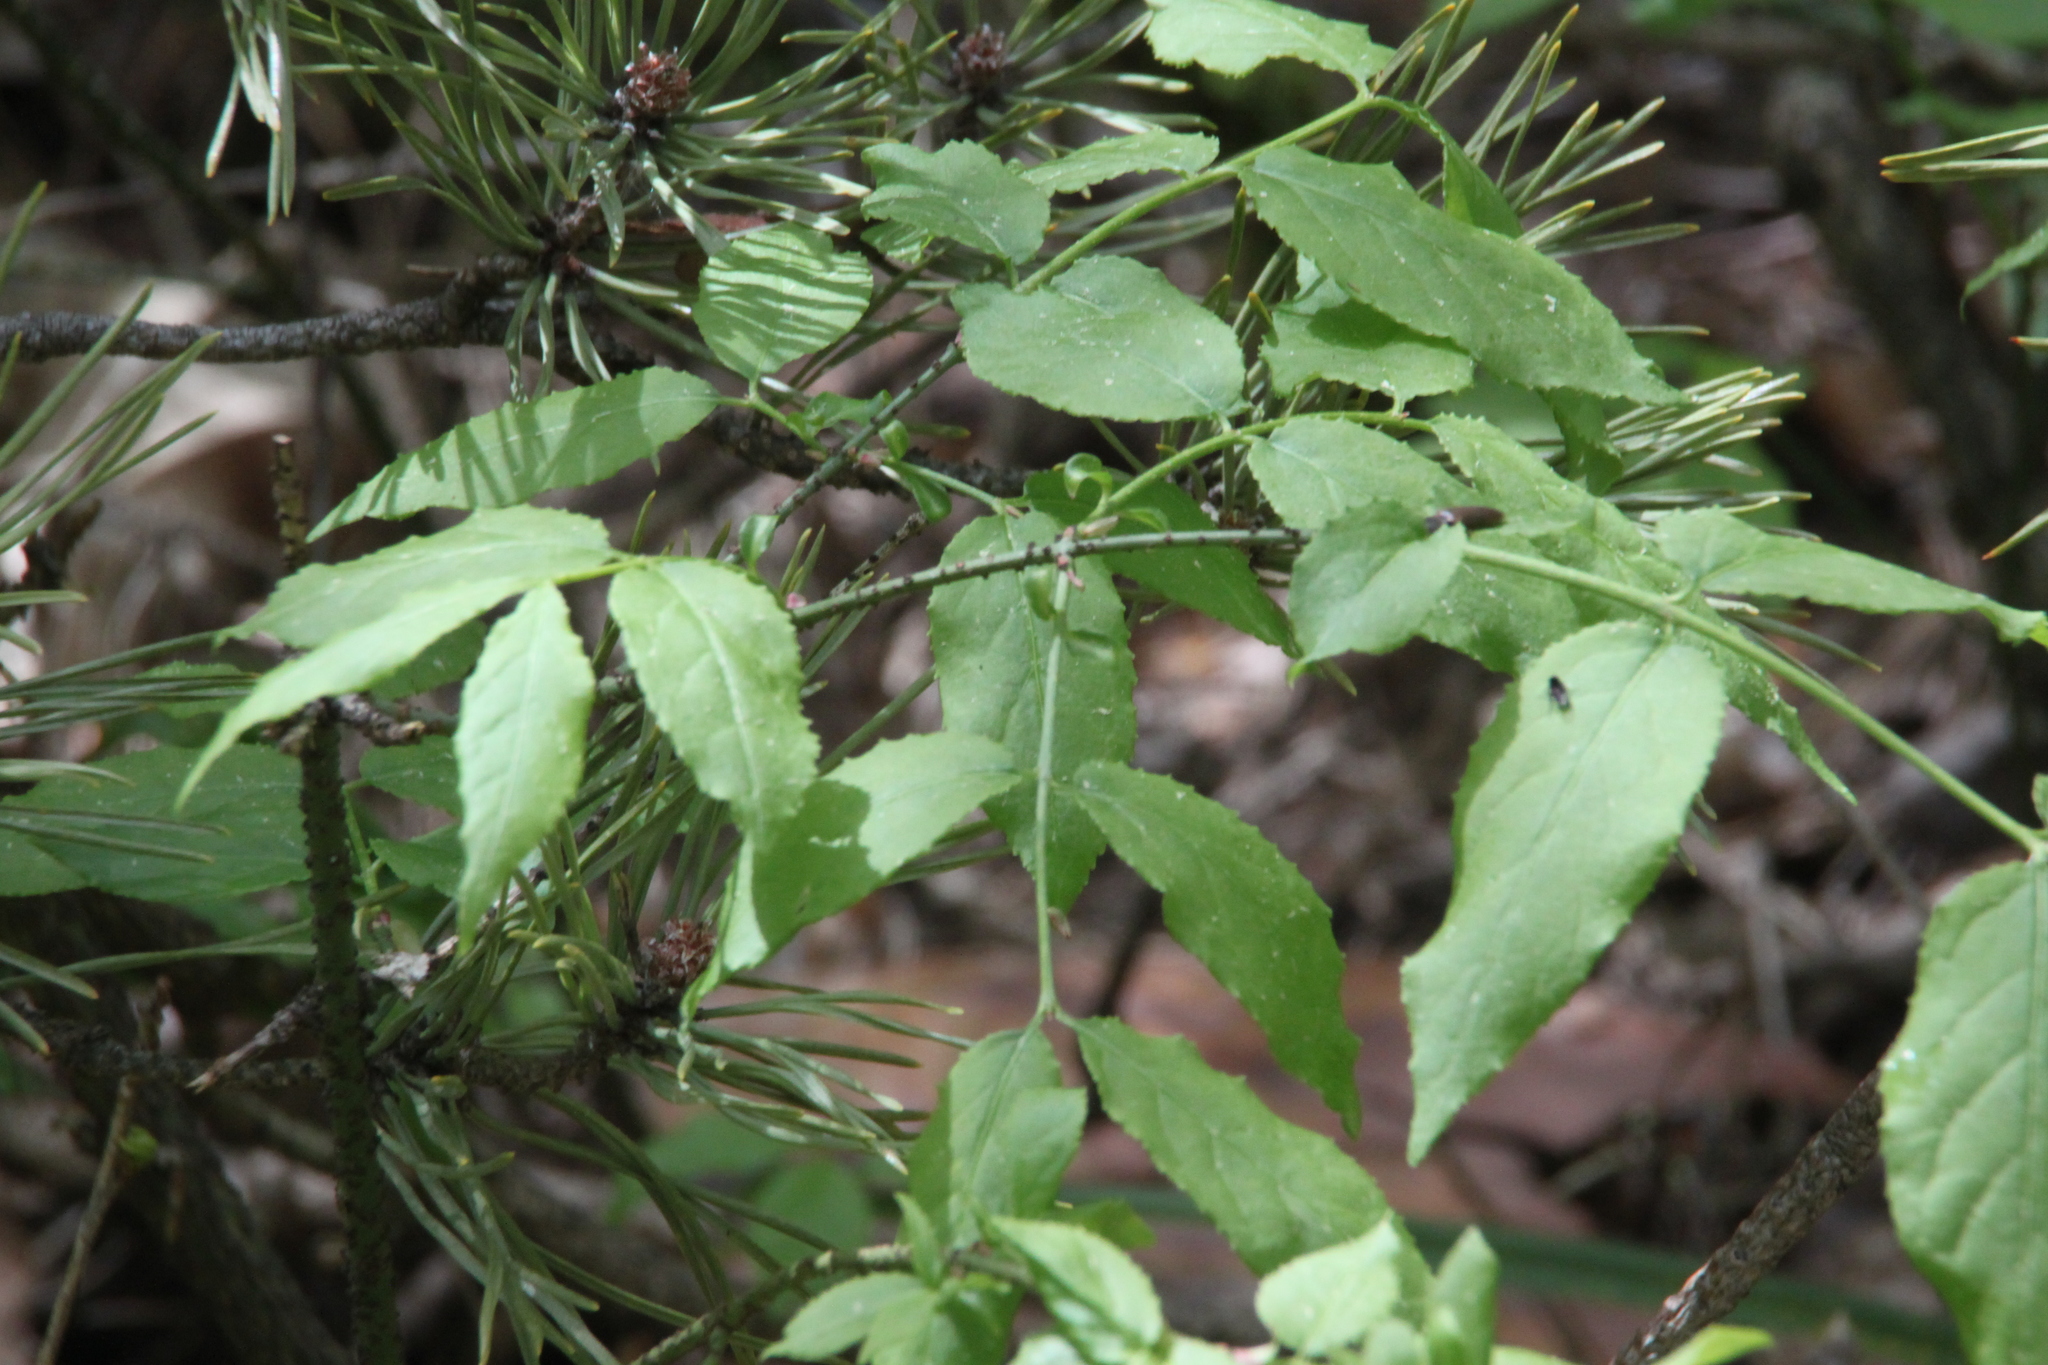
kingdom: Plantae
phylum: Tracheophyta
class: Magnoliopsida
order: Celastrales
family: Celastraceae
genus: Euonymus
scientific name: Euonymus verrucosus
